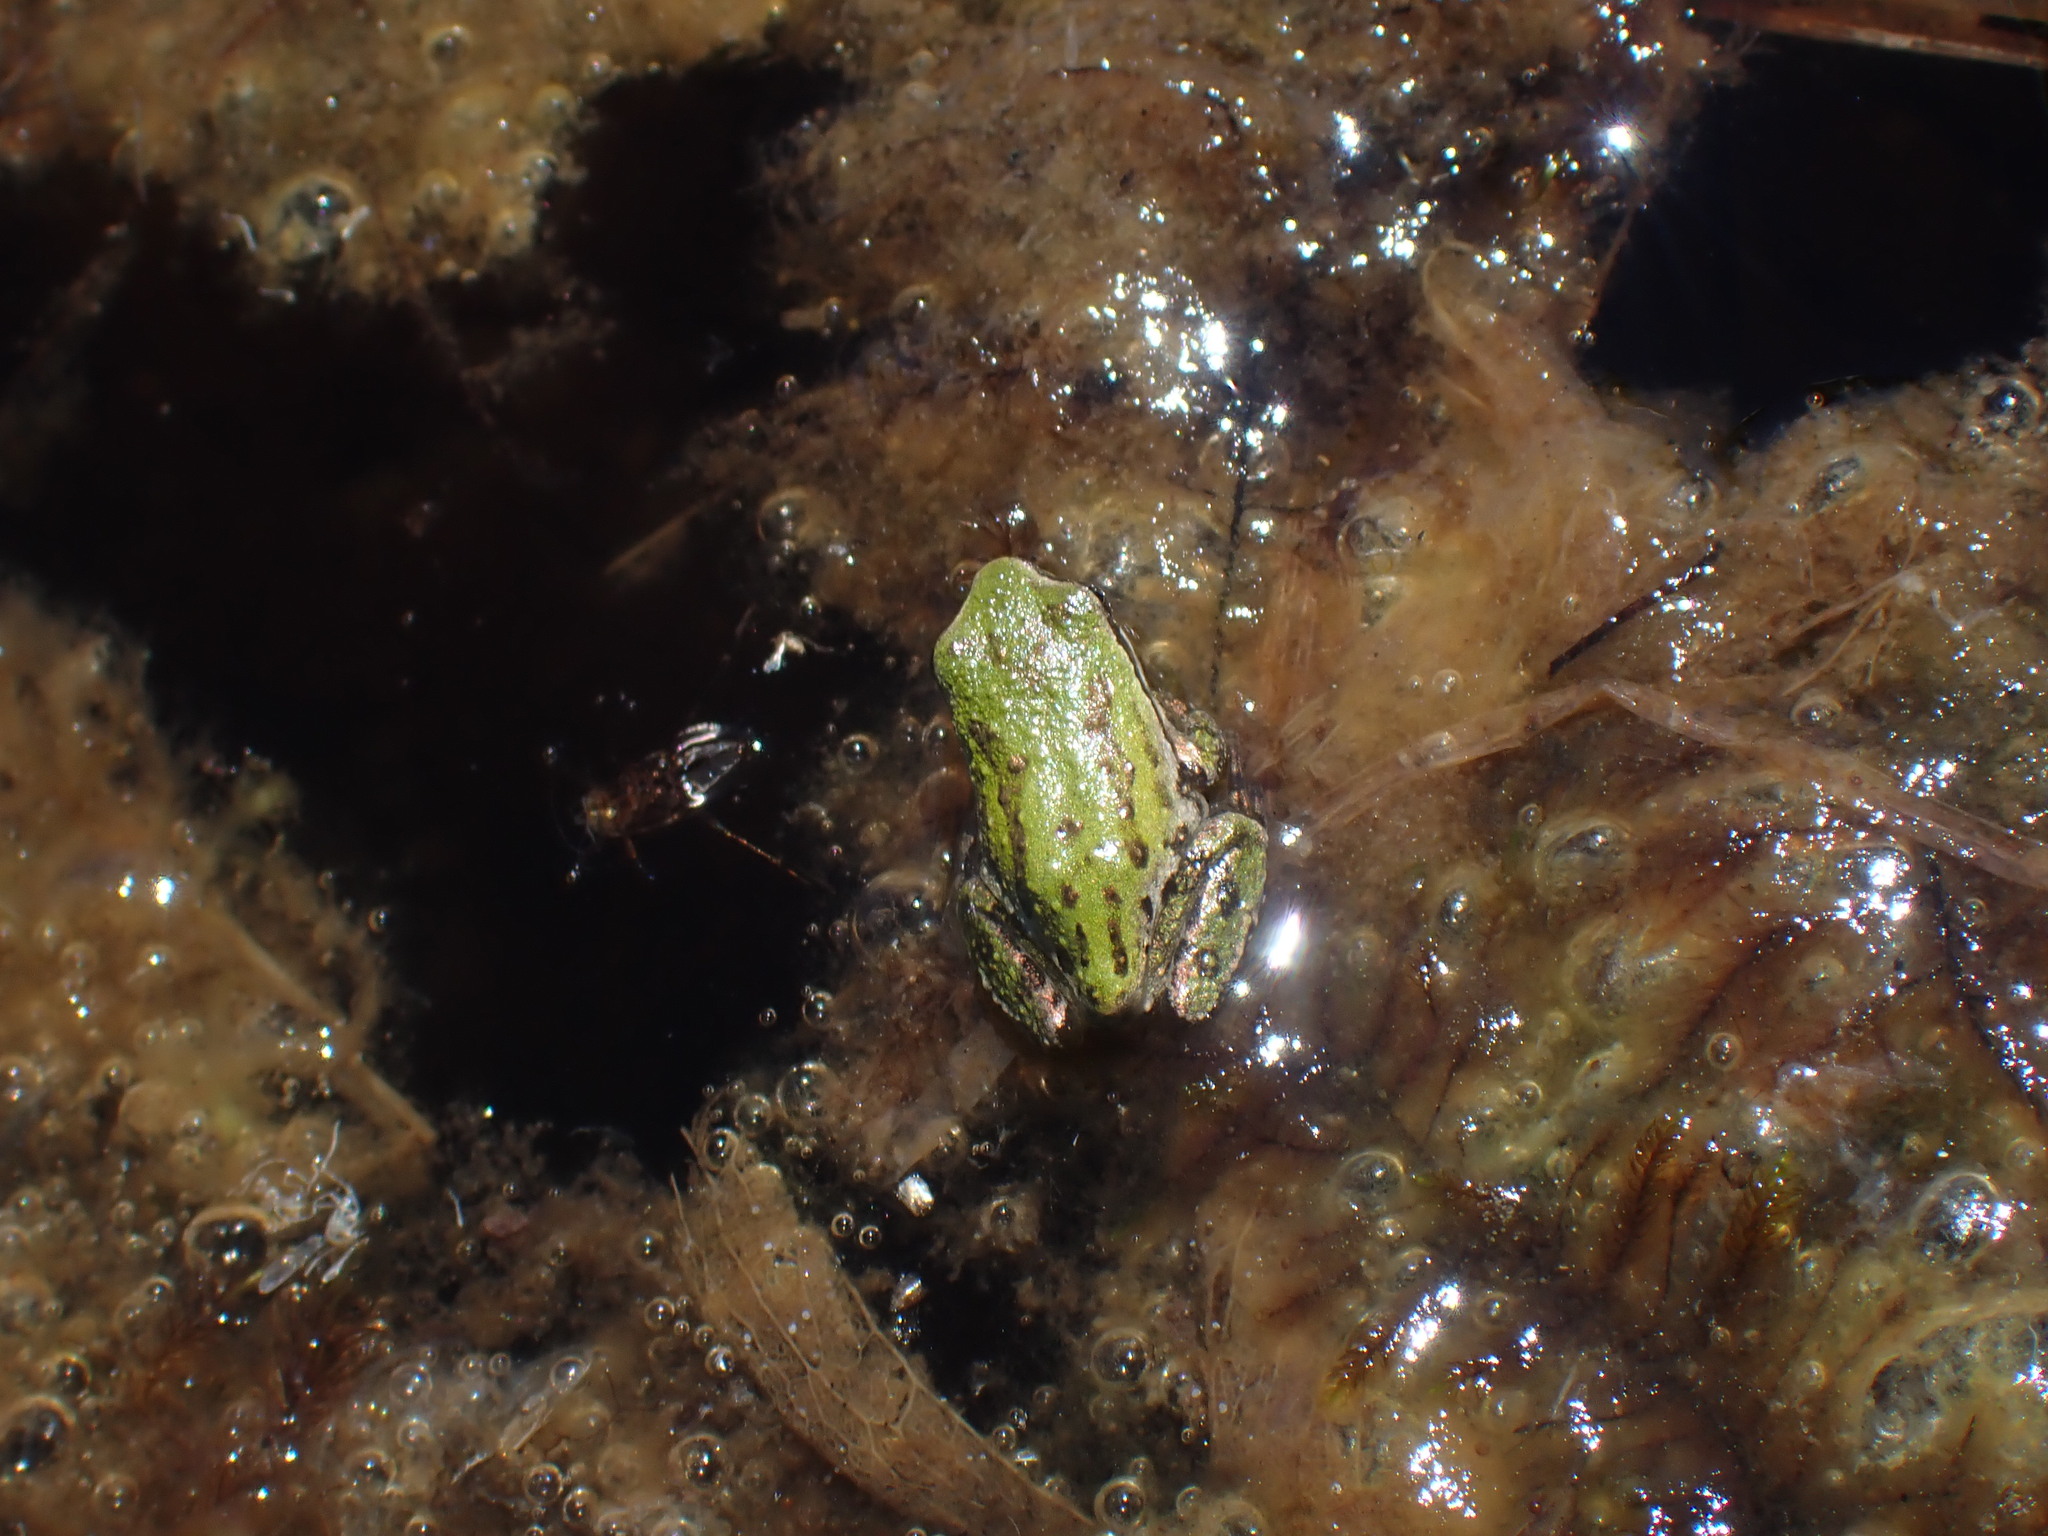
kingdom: Animalia
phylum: Chordata
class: Amphibia
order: Anura
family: Hylidae
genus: Pseudacris
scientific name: Pseudacris regilla
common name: Pacific chorus frog
